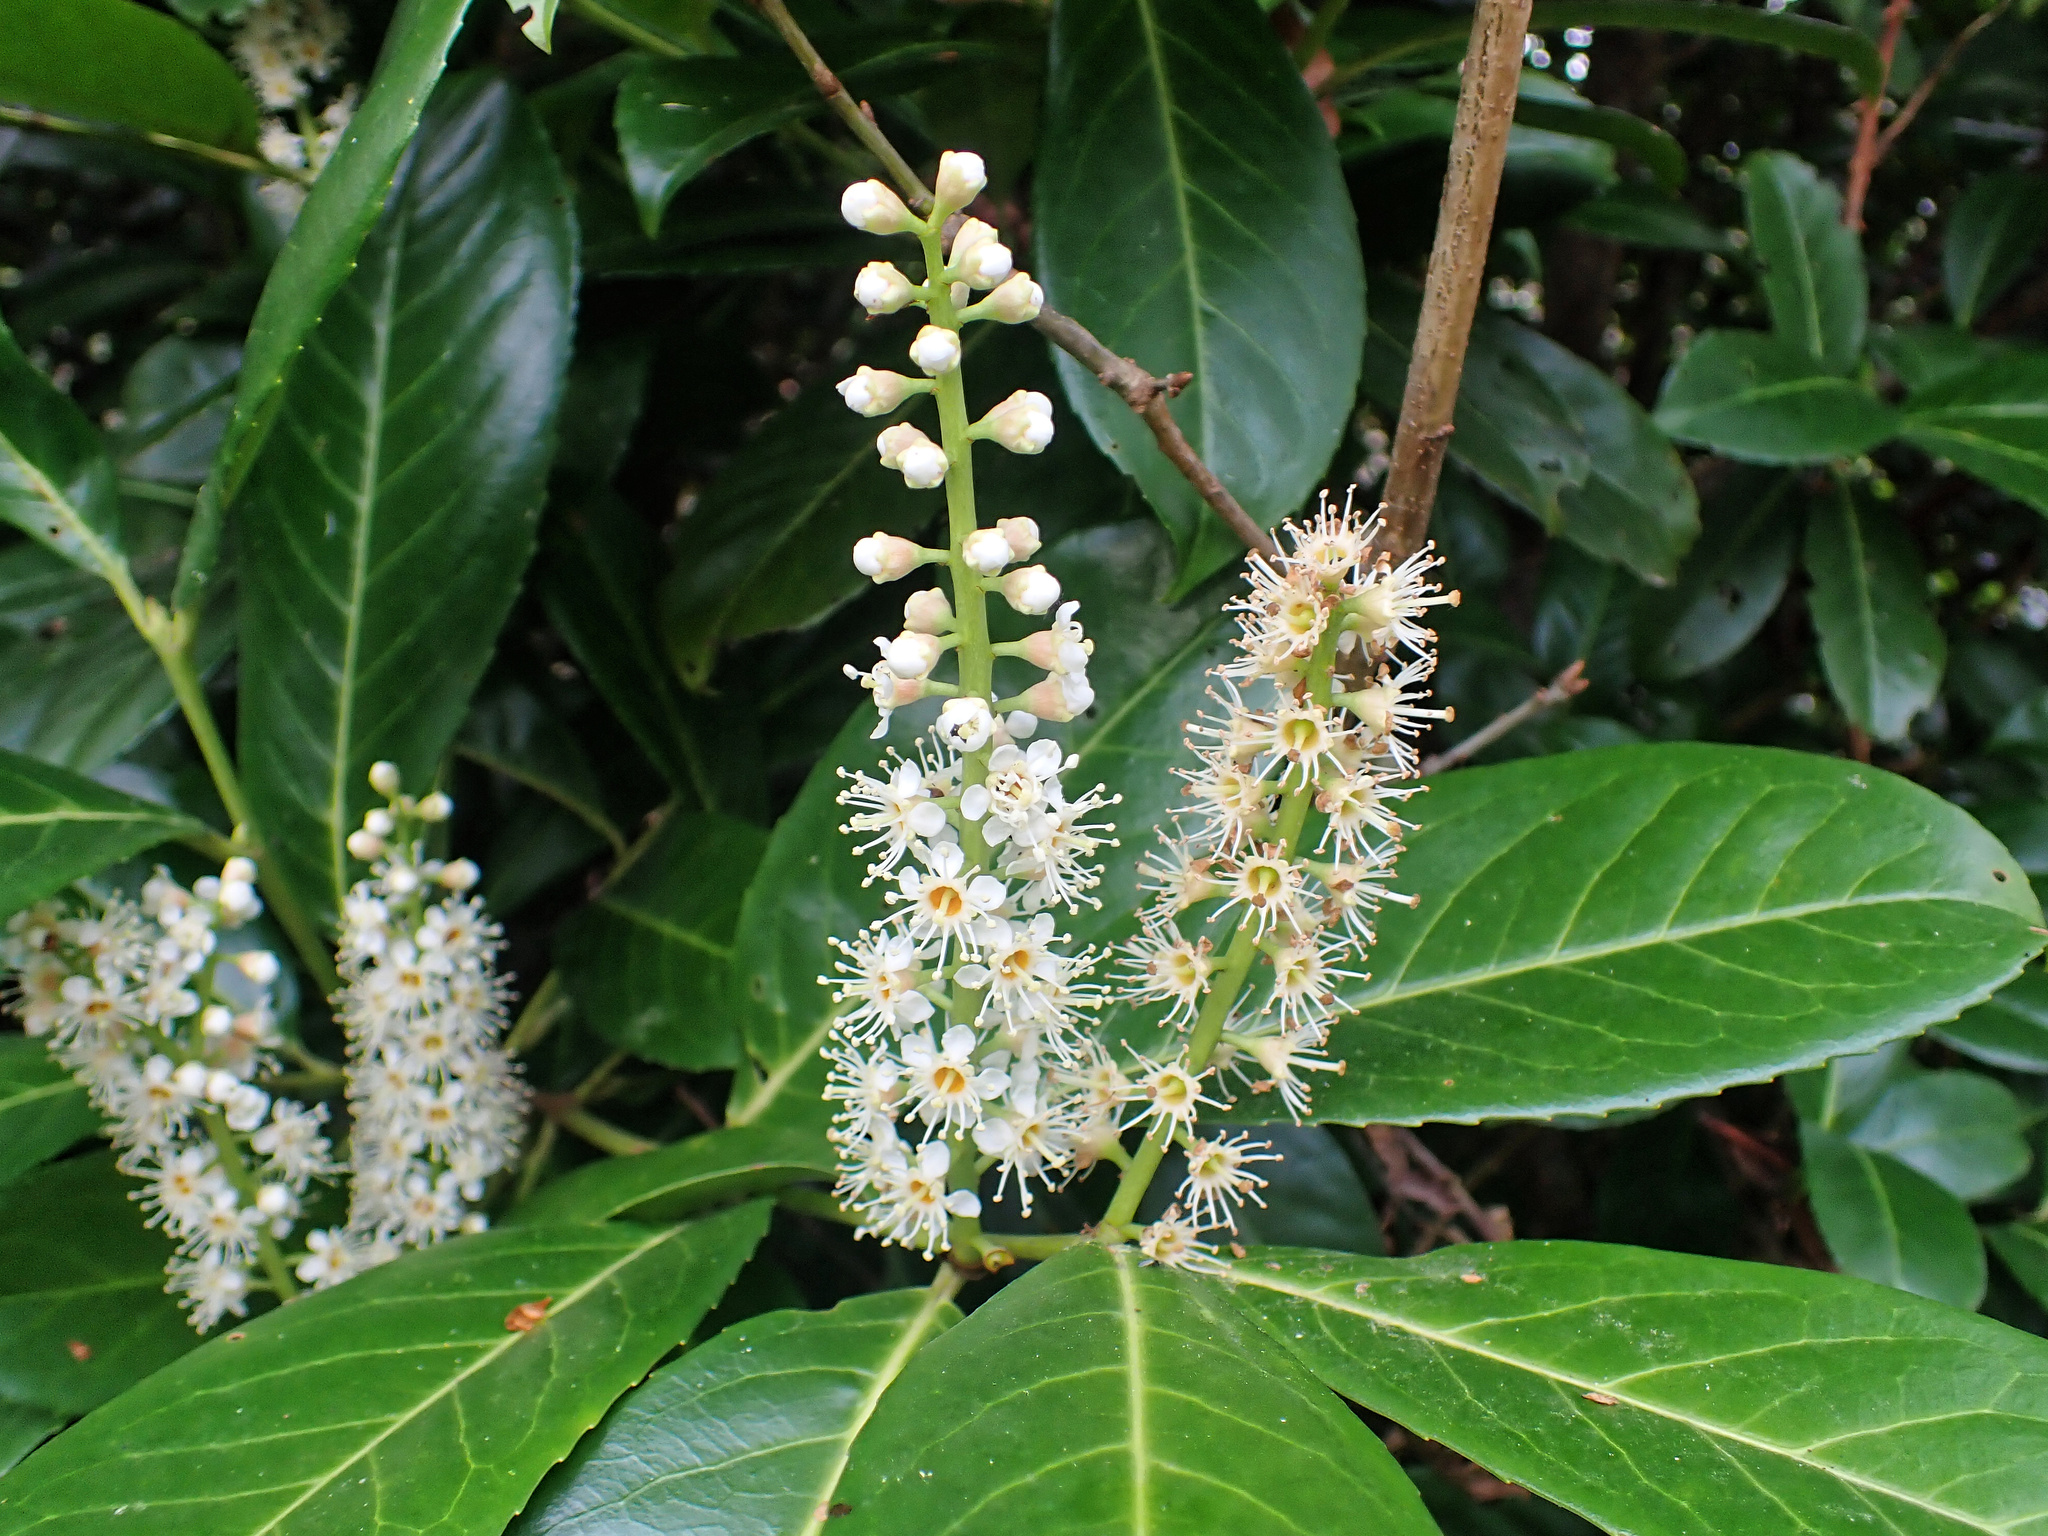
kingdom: Plantae
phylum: Tracheophyta
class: Magnoliopsida
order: Rosales
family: Rosaceae
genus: Prunus
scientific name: Prunus laurocerasus
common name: Cherry laurel
